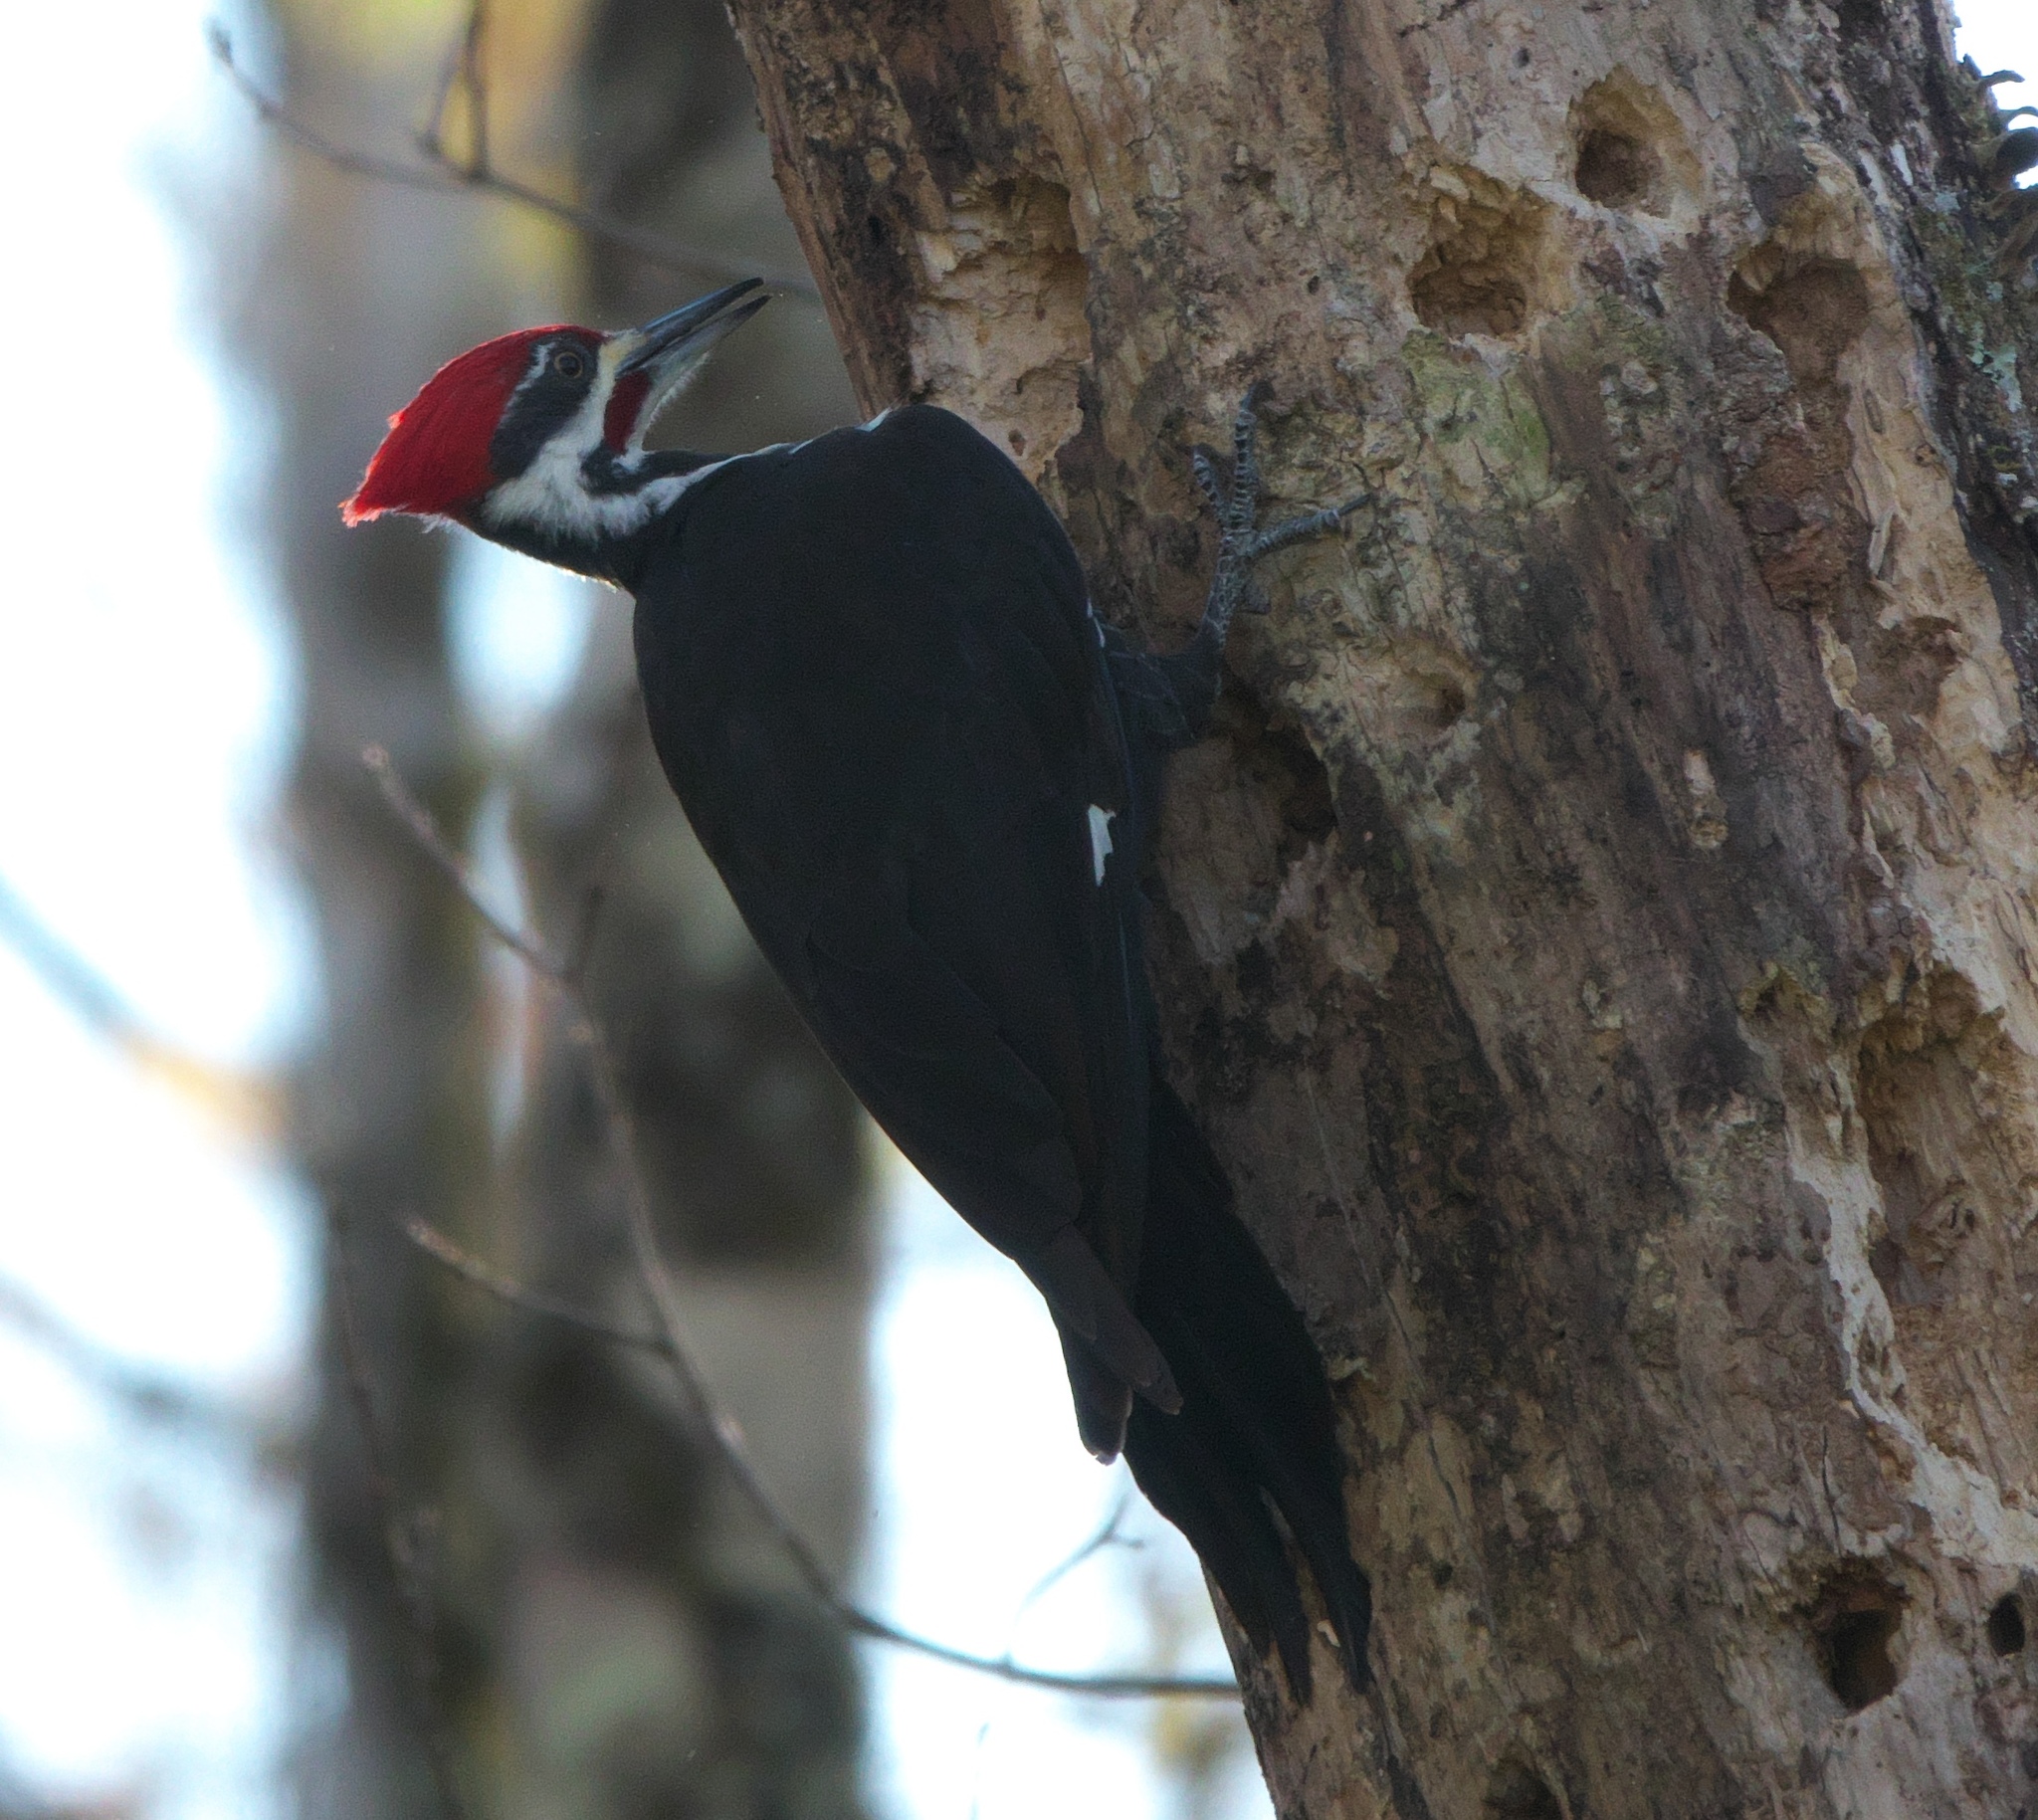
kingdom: Animalia
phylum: Chordata
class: Aves
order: Piciformes
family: Picidae
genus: Dryocopus
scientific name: Dryocopus pileatus
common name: Pileated woodpecker
